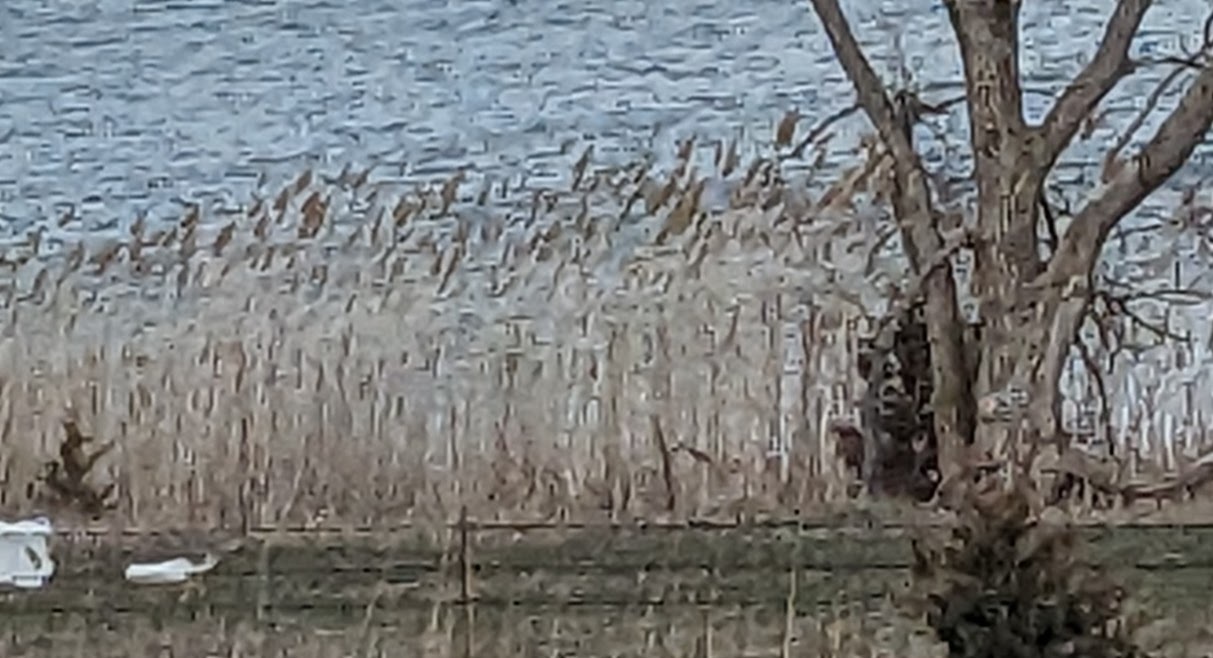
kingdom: Plantae
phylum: Tracheophyta
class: Liliopsida
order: Poales
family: Poaceae
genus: Phragmites
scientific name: Phragmites australis
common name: Common reed
